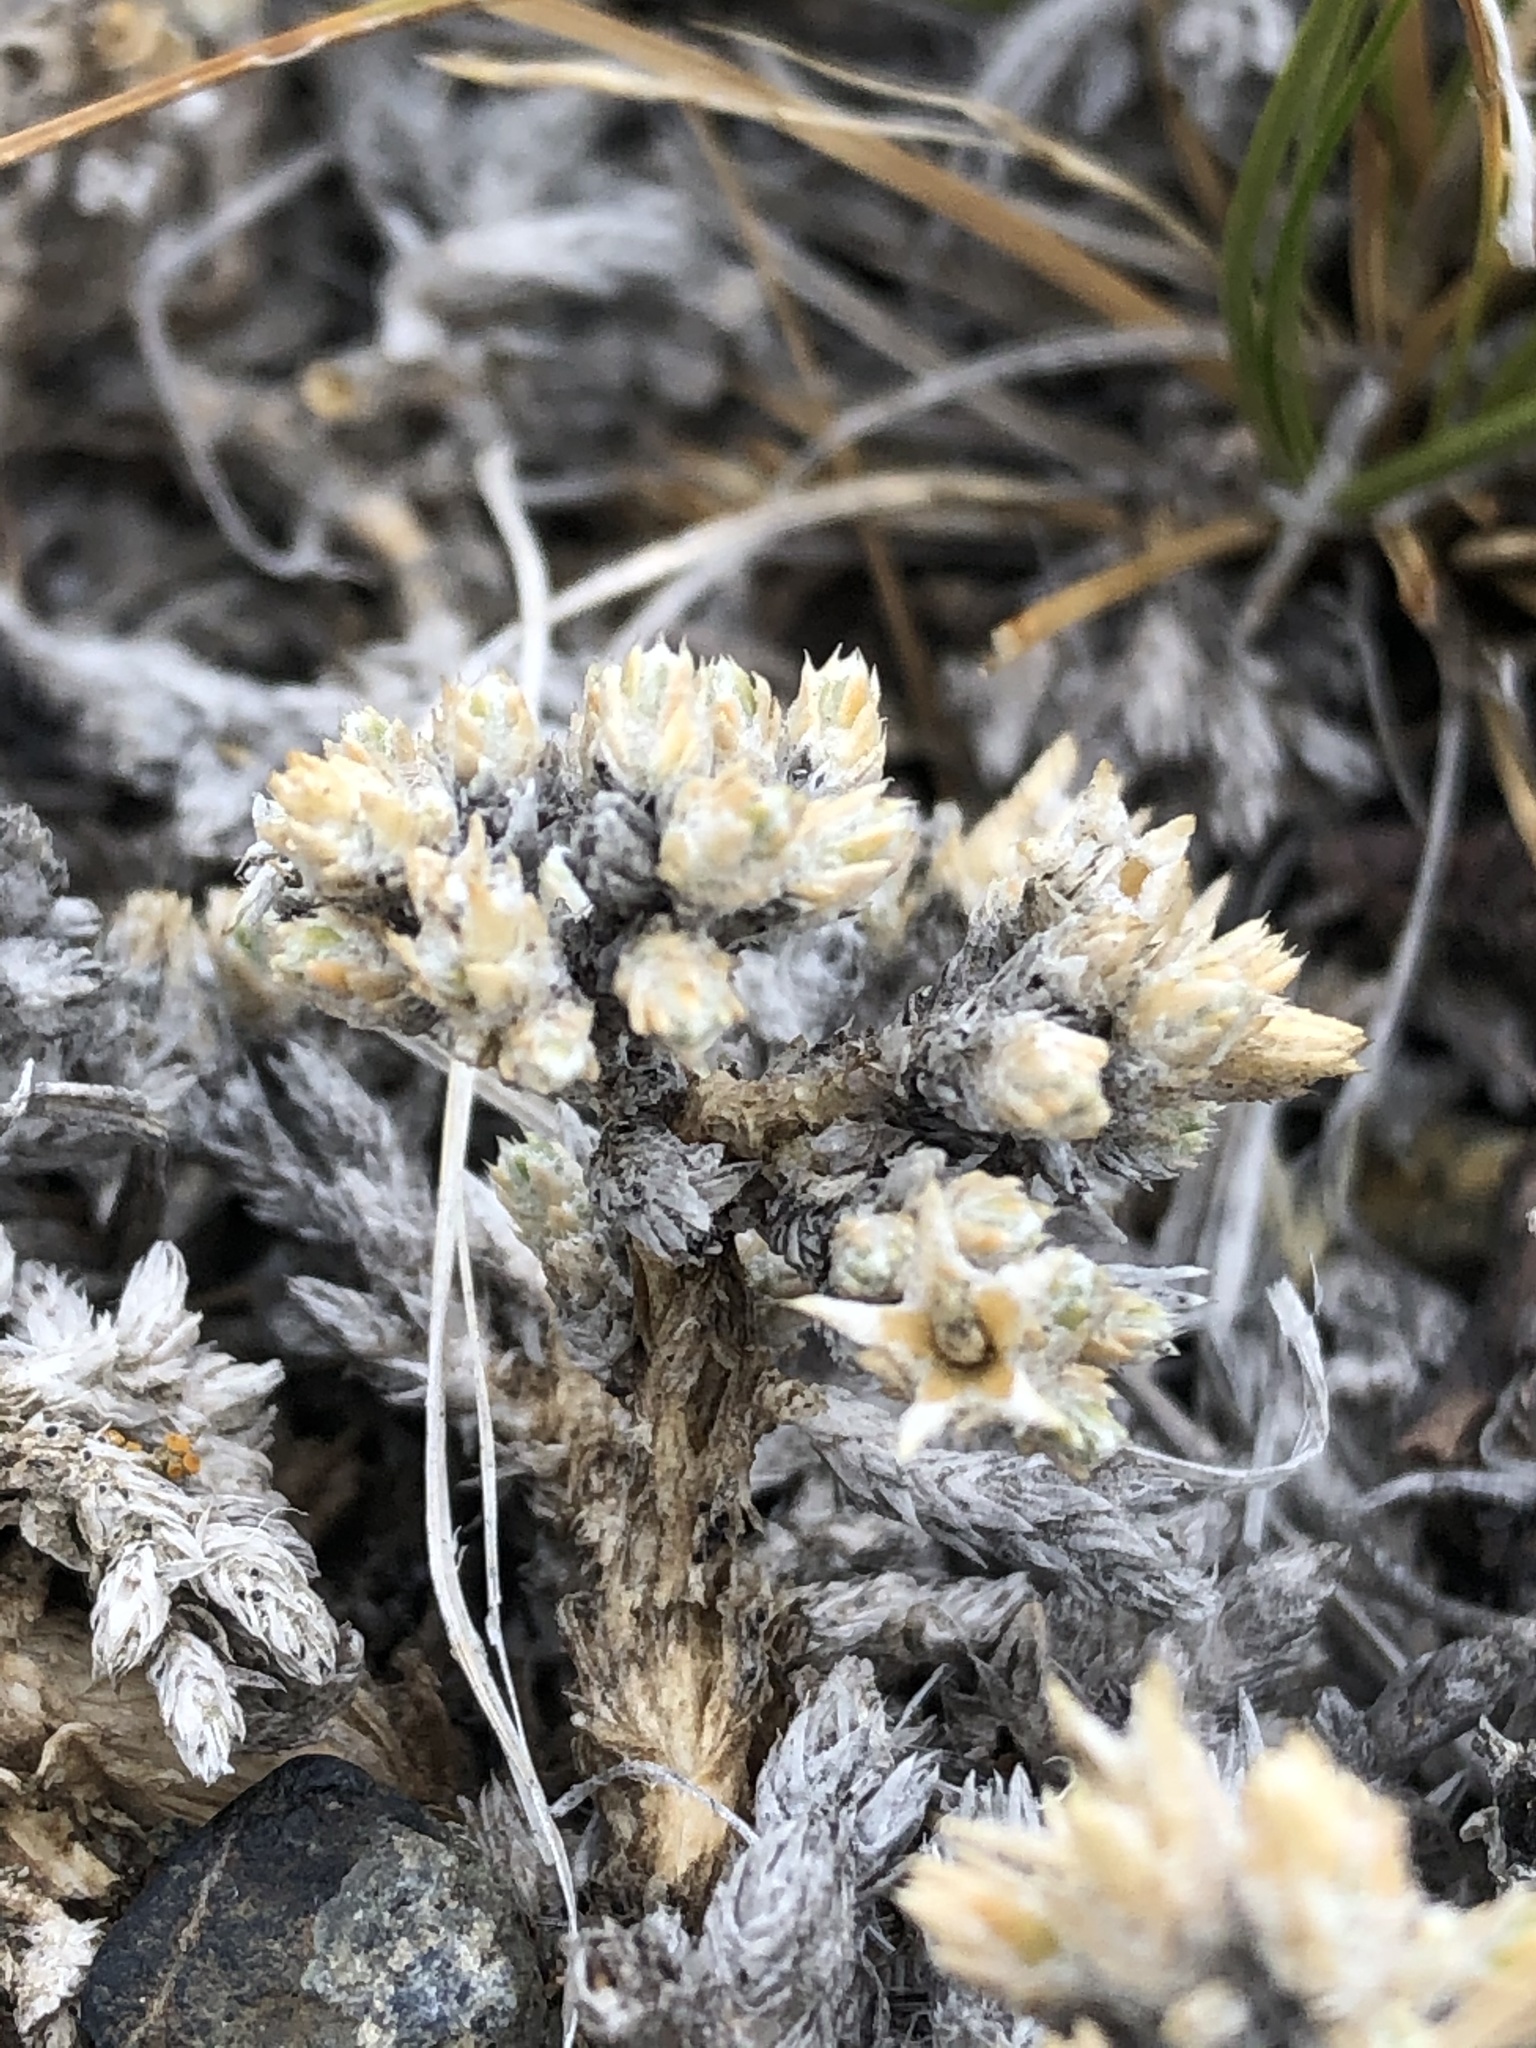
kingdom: Plantae
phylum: Tracheophyta
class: Magnoliopsida
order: Ericales
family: Polemoniaceae
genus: Phlox
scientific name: Phlox hoodii
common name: Moss phlox
